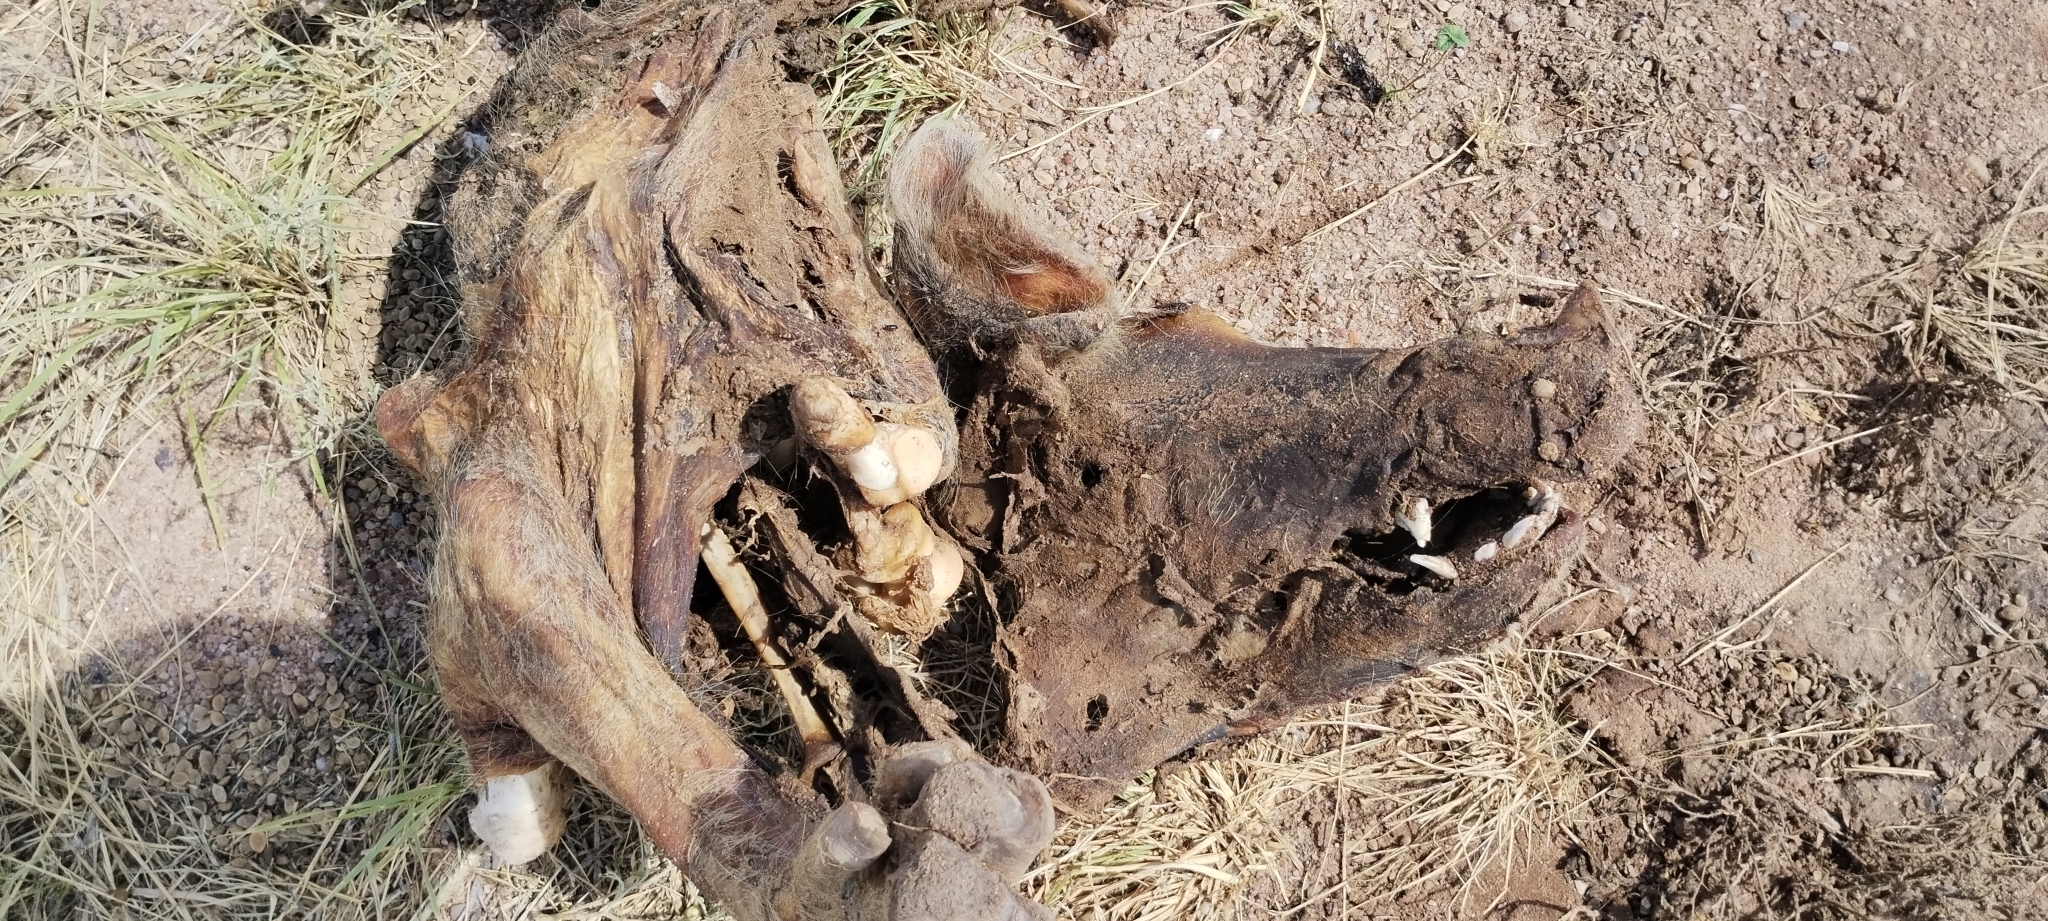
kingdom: Animalia
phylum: Chordata
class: Mammalia
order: Artiodactyla
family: Suidae
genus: Sus
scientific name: Sus scrofa
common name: Wild boar
